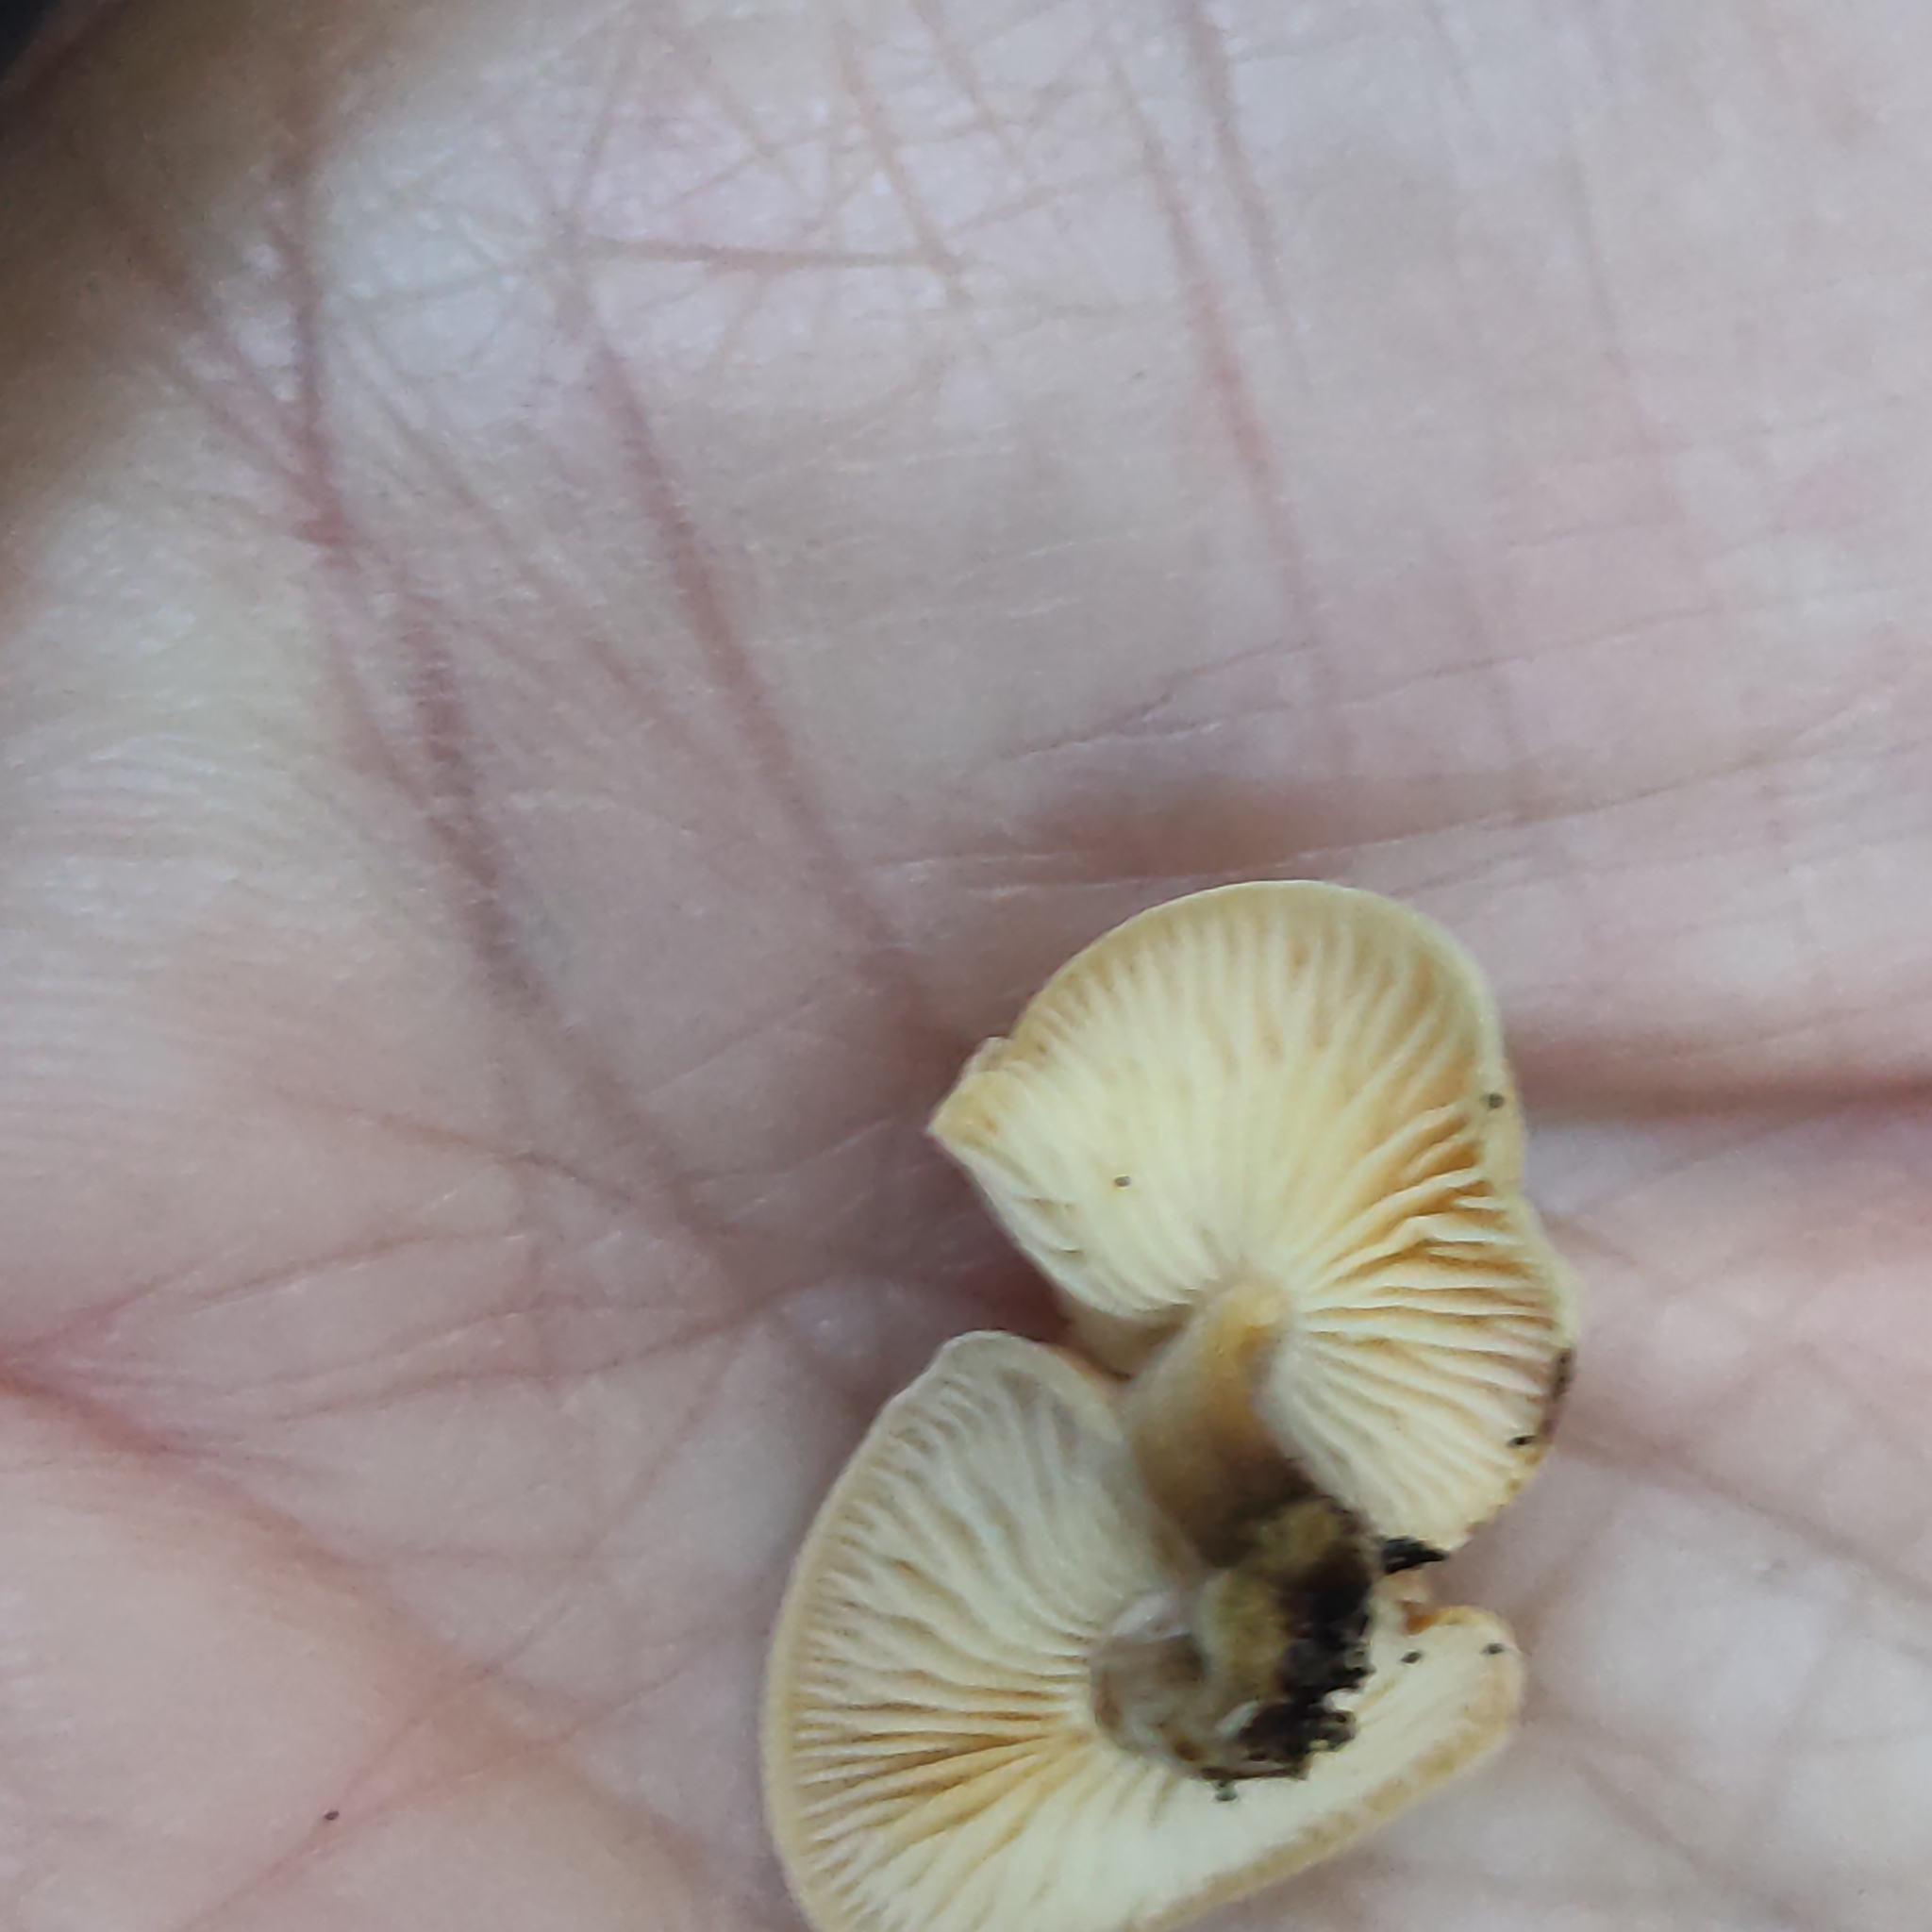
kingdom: Fungi
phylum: Basidiomycota
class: Agaricomycetes
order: Agaricales
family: Physalacriaceae
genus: Flammulina
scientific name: Flammulina velutipes
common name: Velvet shank
